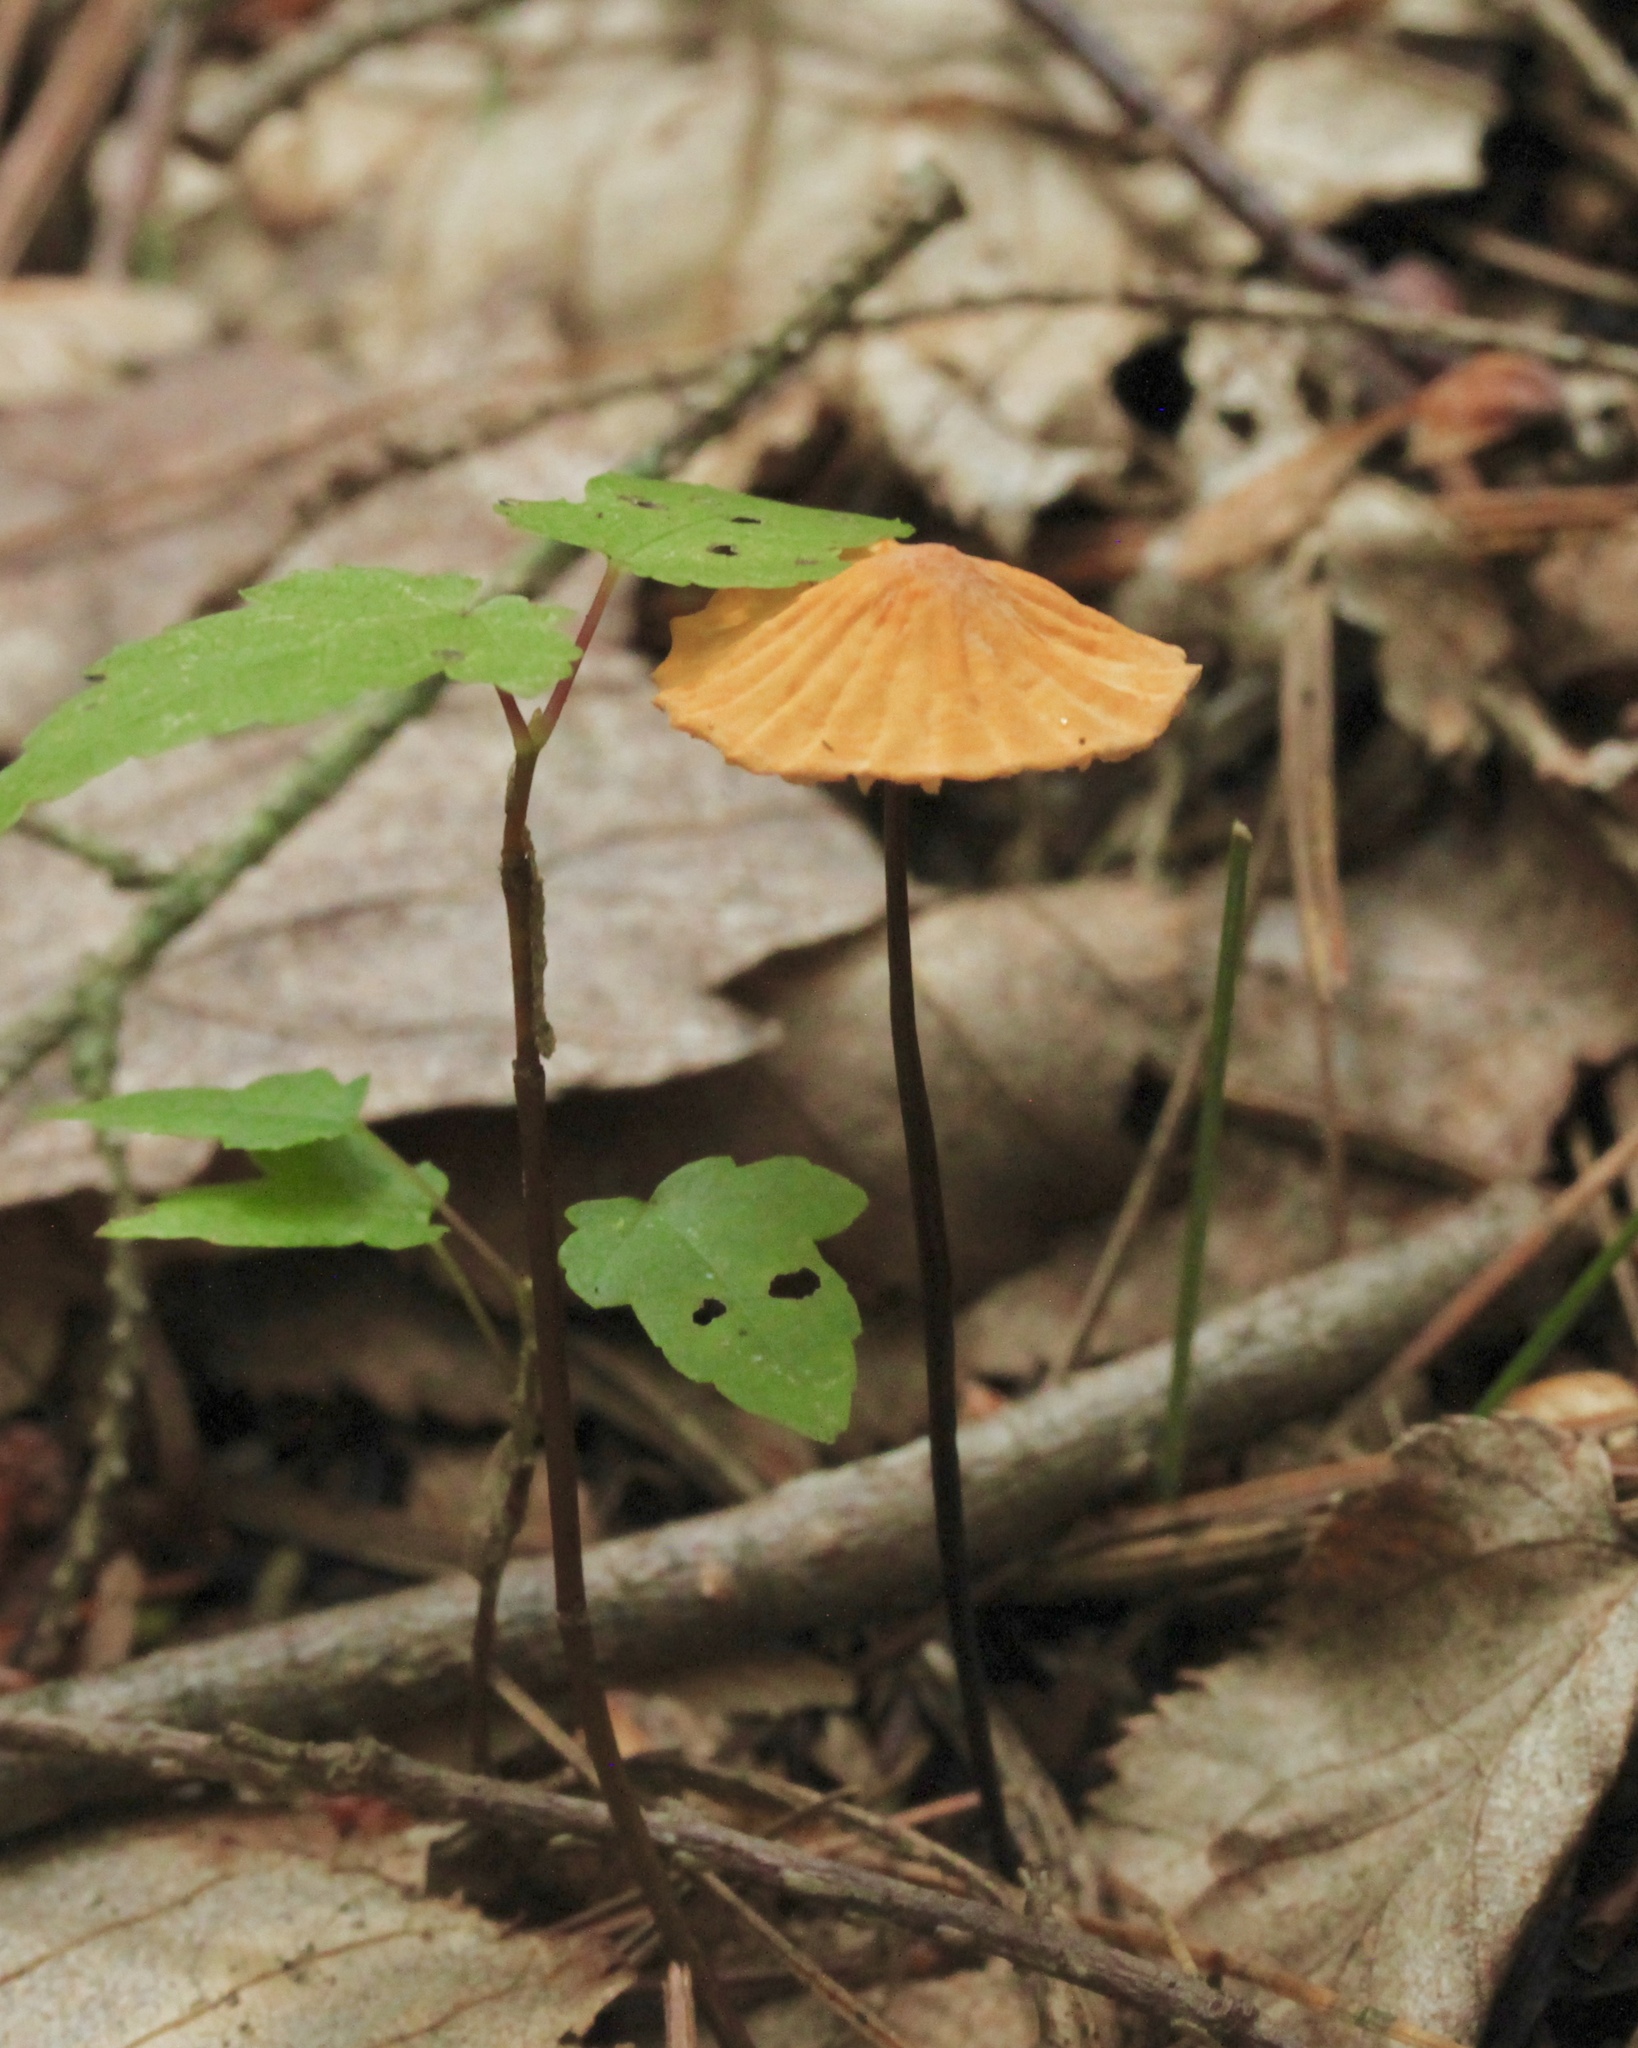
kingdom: Fungi
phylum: Basidiomycota
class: Agaricomycetes
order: Agaricales
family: Marasmiaceae
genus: Marasmius
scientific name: Marasmius siccus
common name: Orange pinwheel
